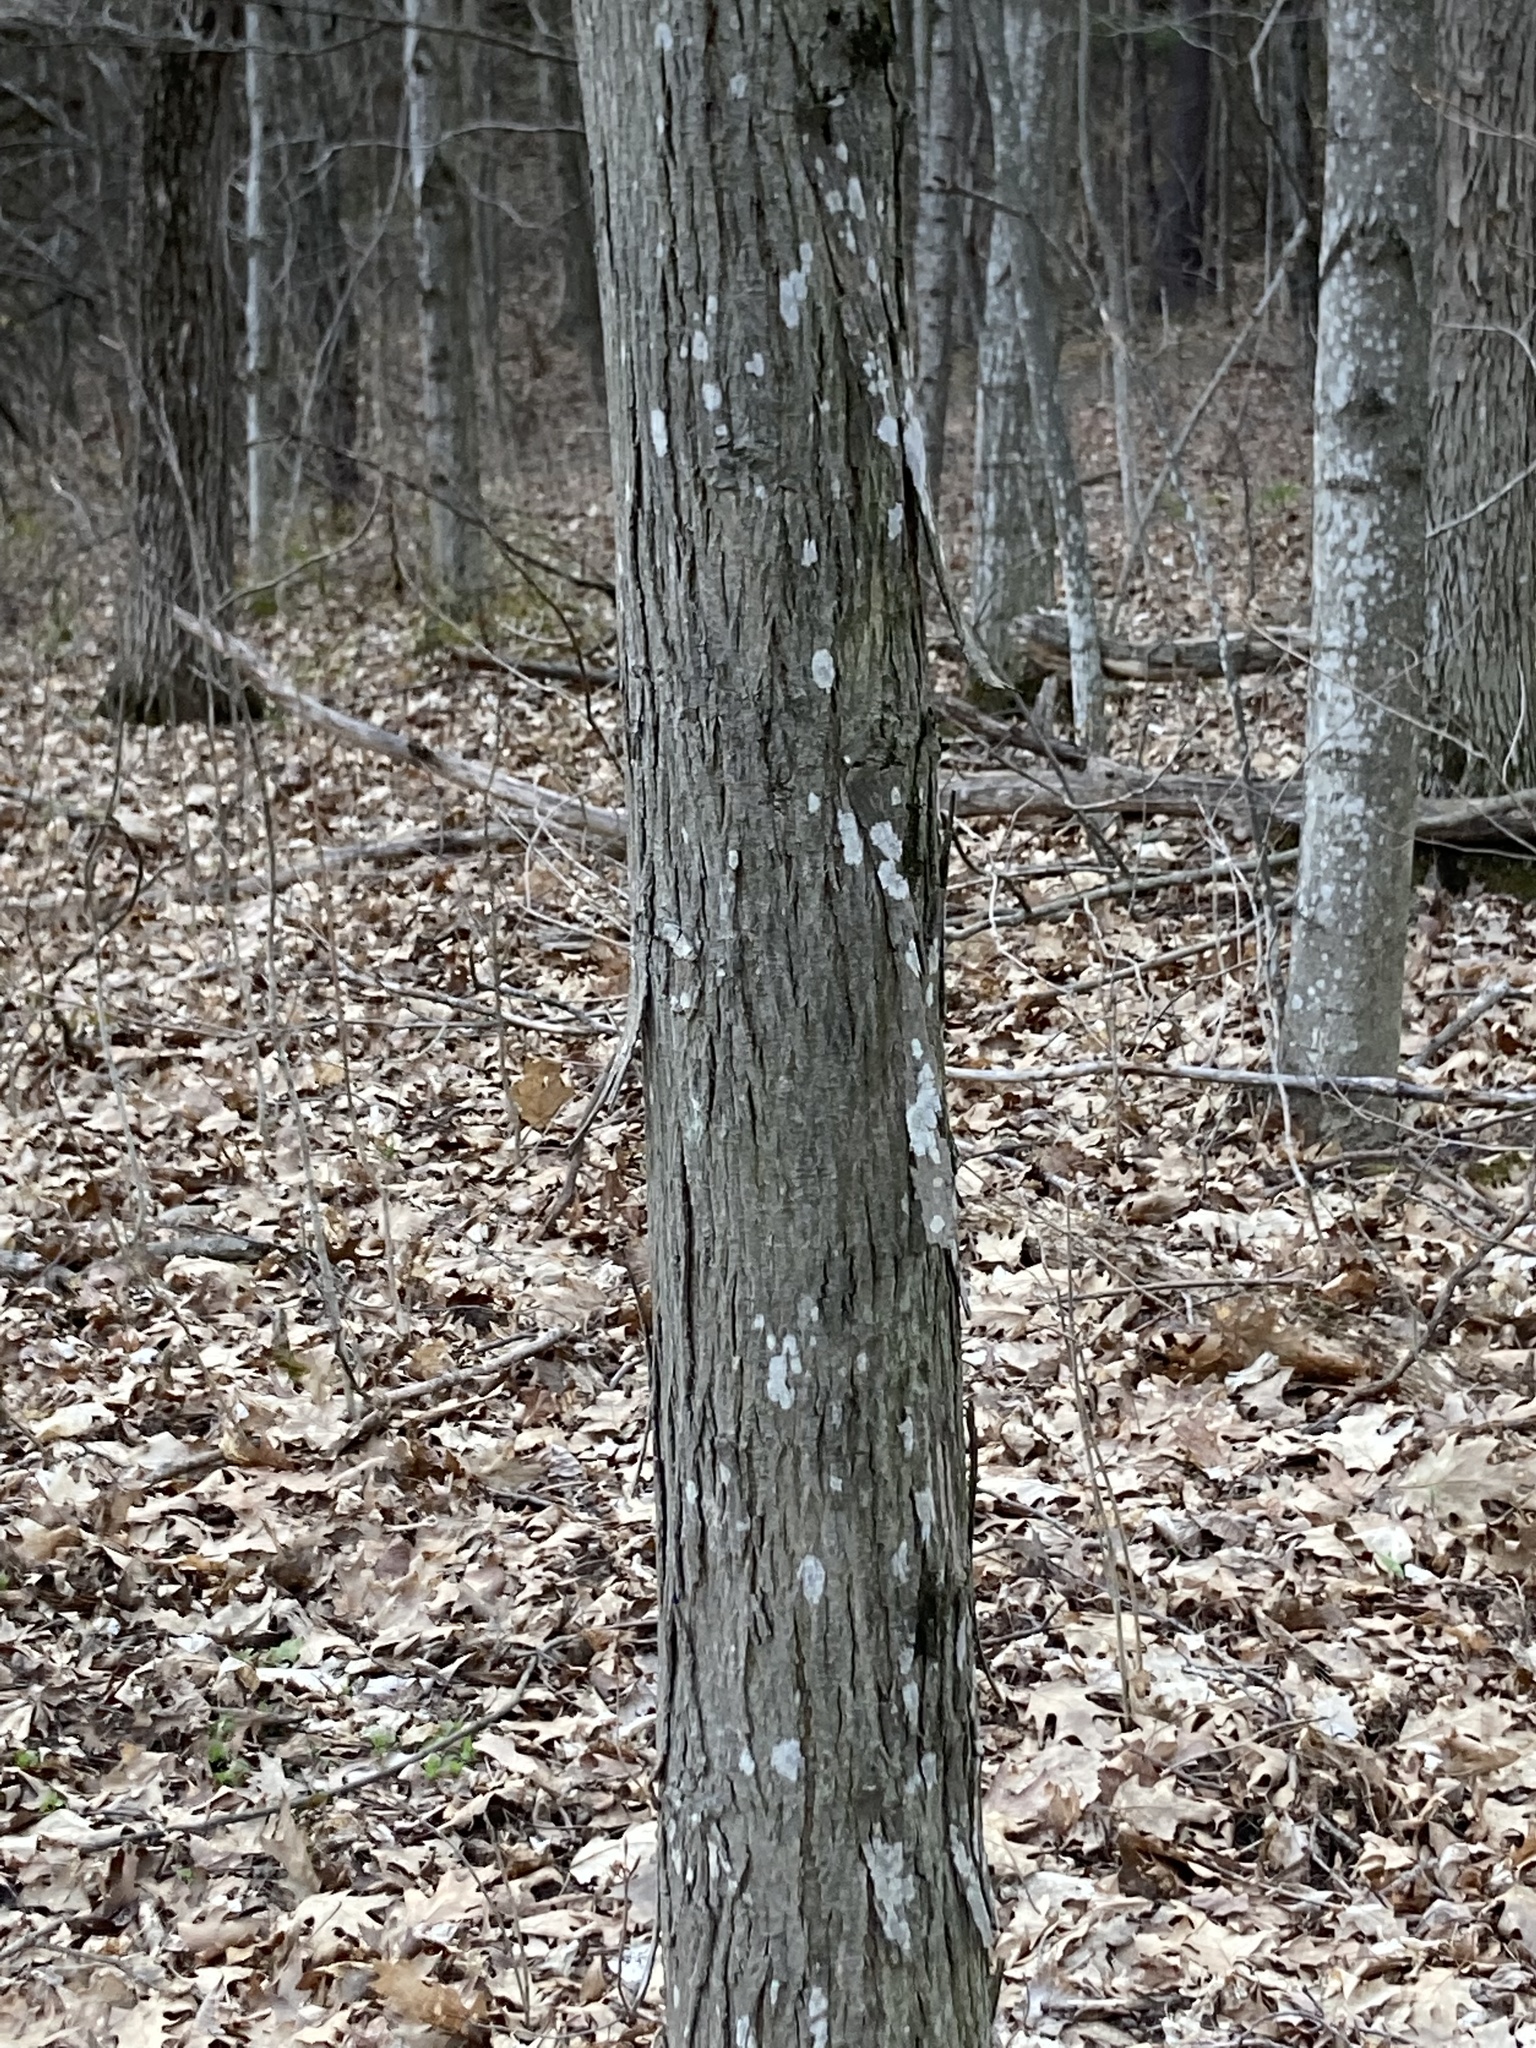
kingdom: Plantae
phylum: Tracheophyta
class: Magnoliopsida
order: Fagales
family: Juglandaceae
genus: Carya
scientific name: Carya ovata
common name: Shagbark hickory
